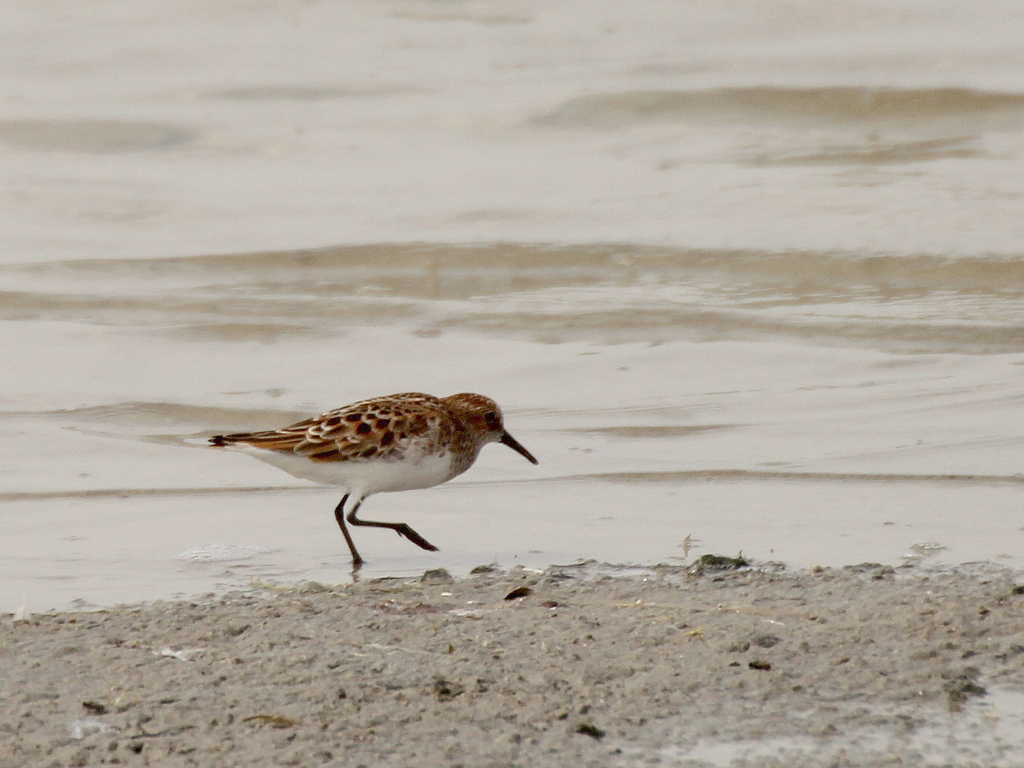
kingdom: Animalia
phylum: Chordata
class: Aves
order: Charadriiformes
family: Scolopacidae
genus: Calidris
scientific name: Calidris minuta
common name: Little stint
